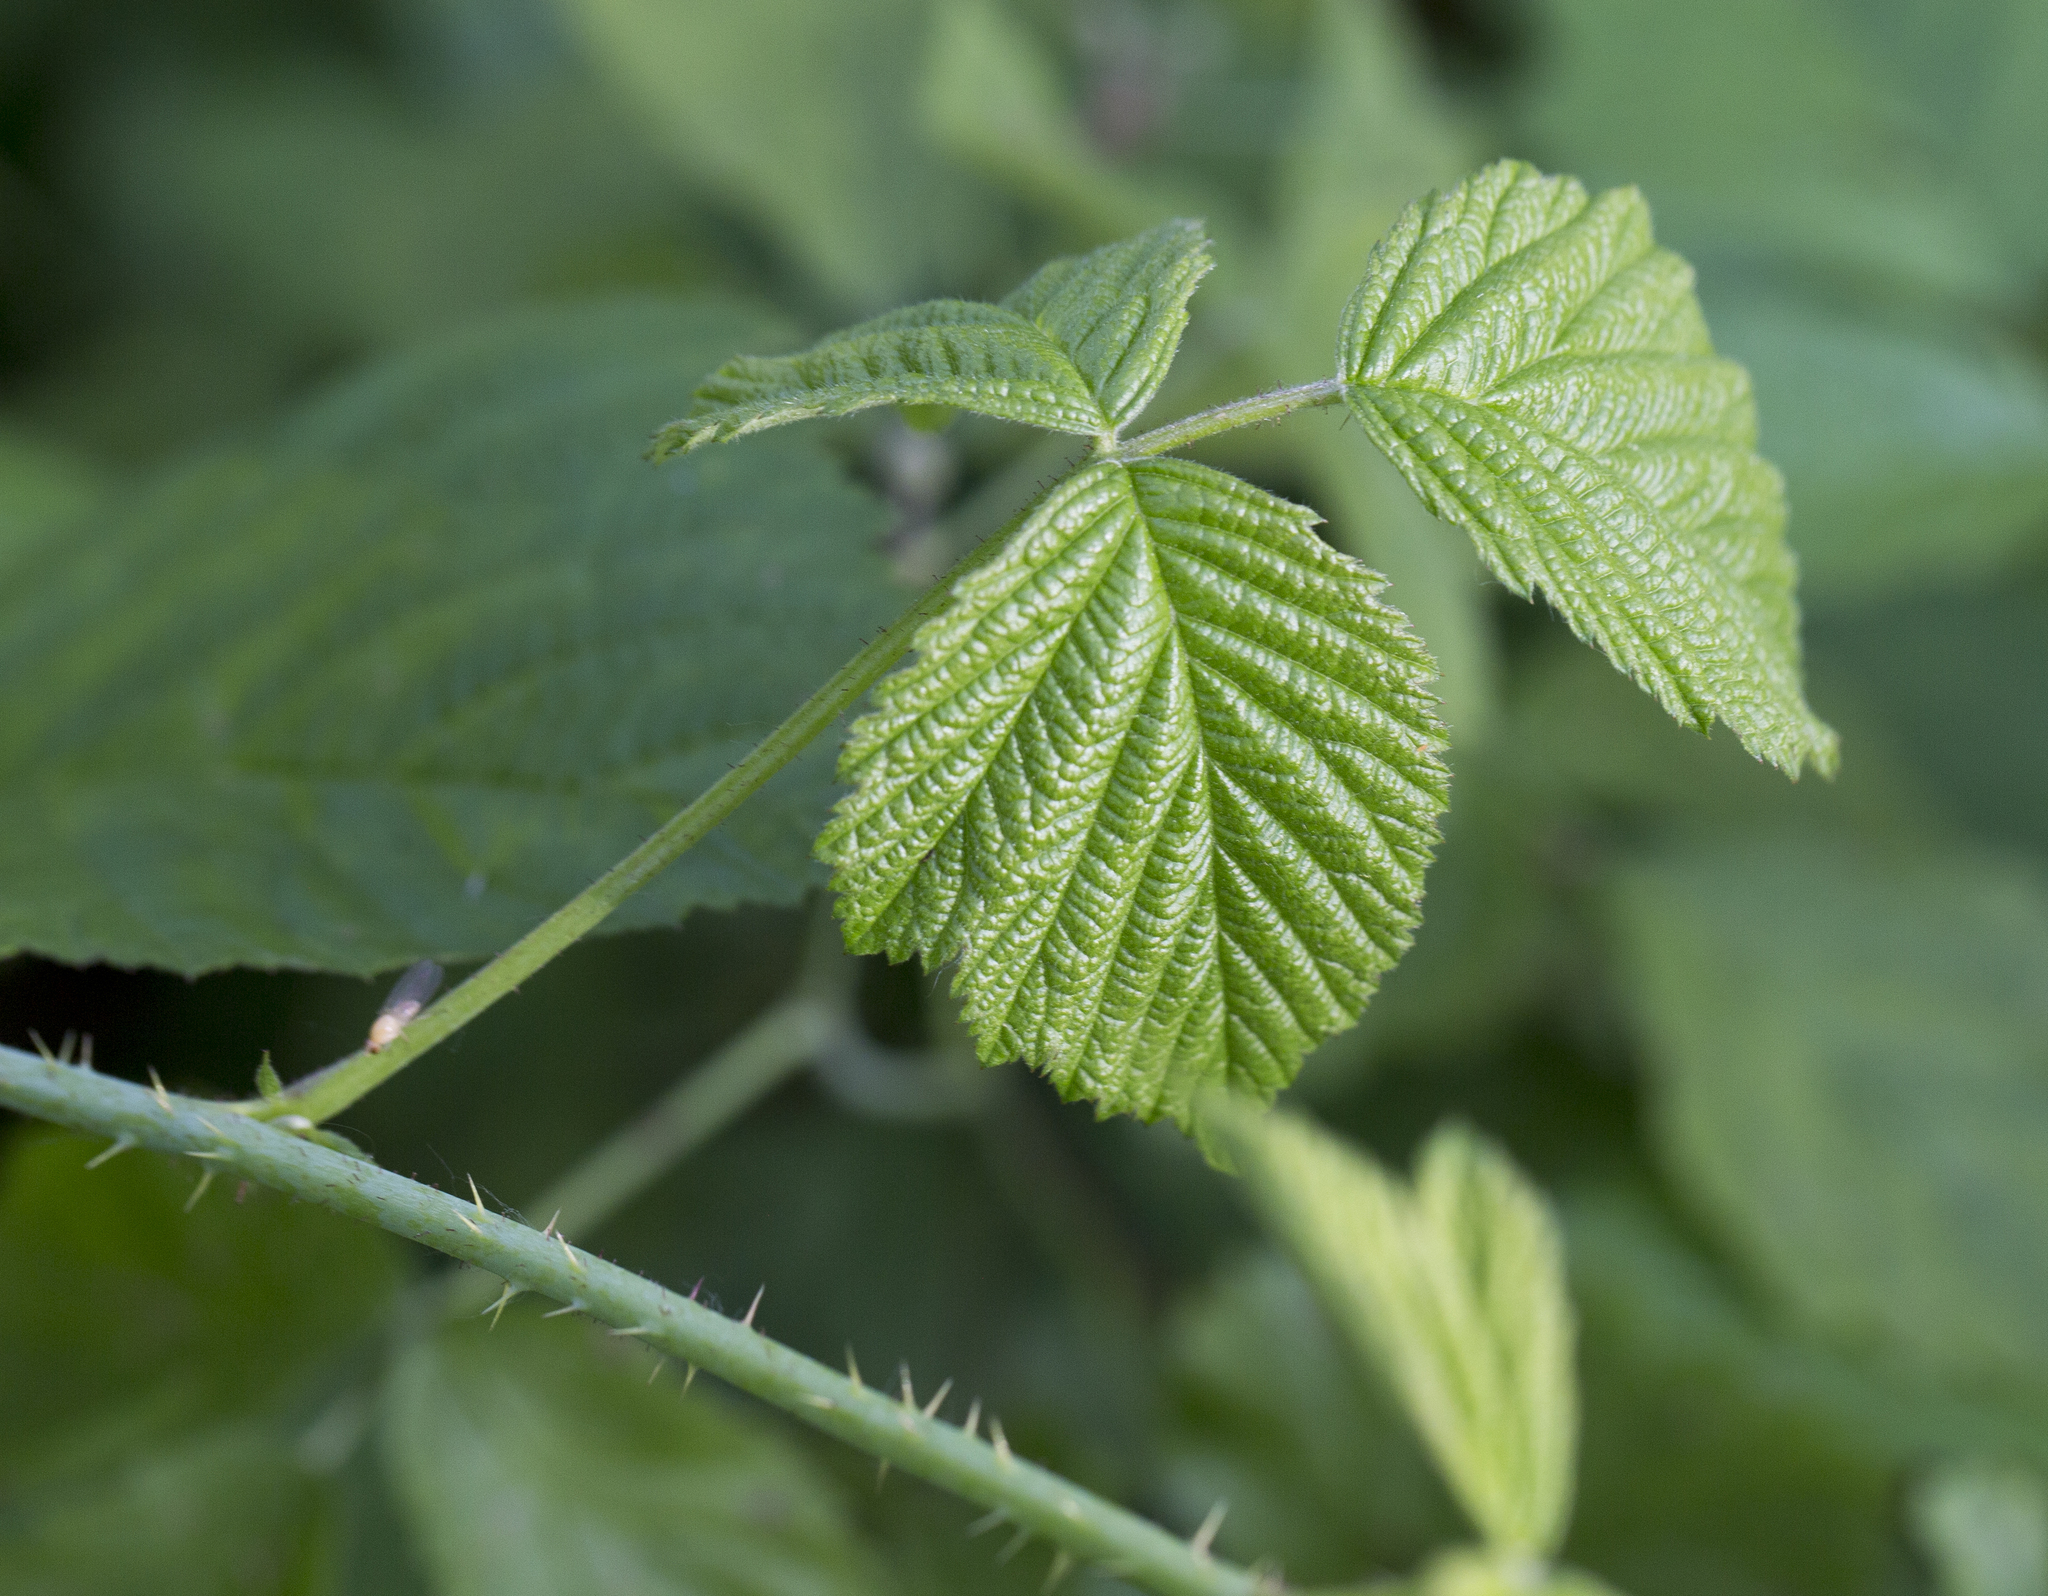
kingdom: Plantae
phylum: Tracheophyta
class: Magnoliopsida
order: Rosales
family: Rosaceae
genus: Rubus
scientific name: Rubus caesius
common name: Dewberry
